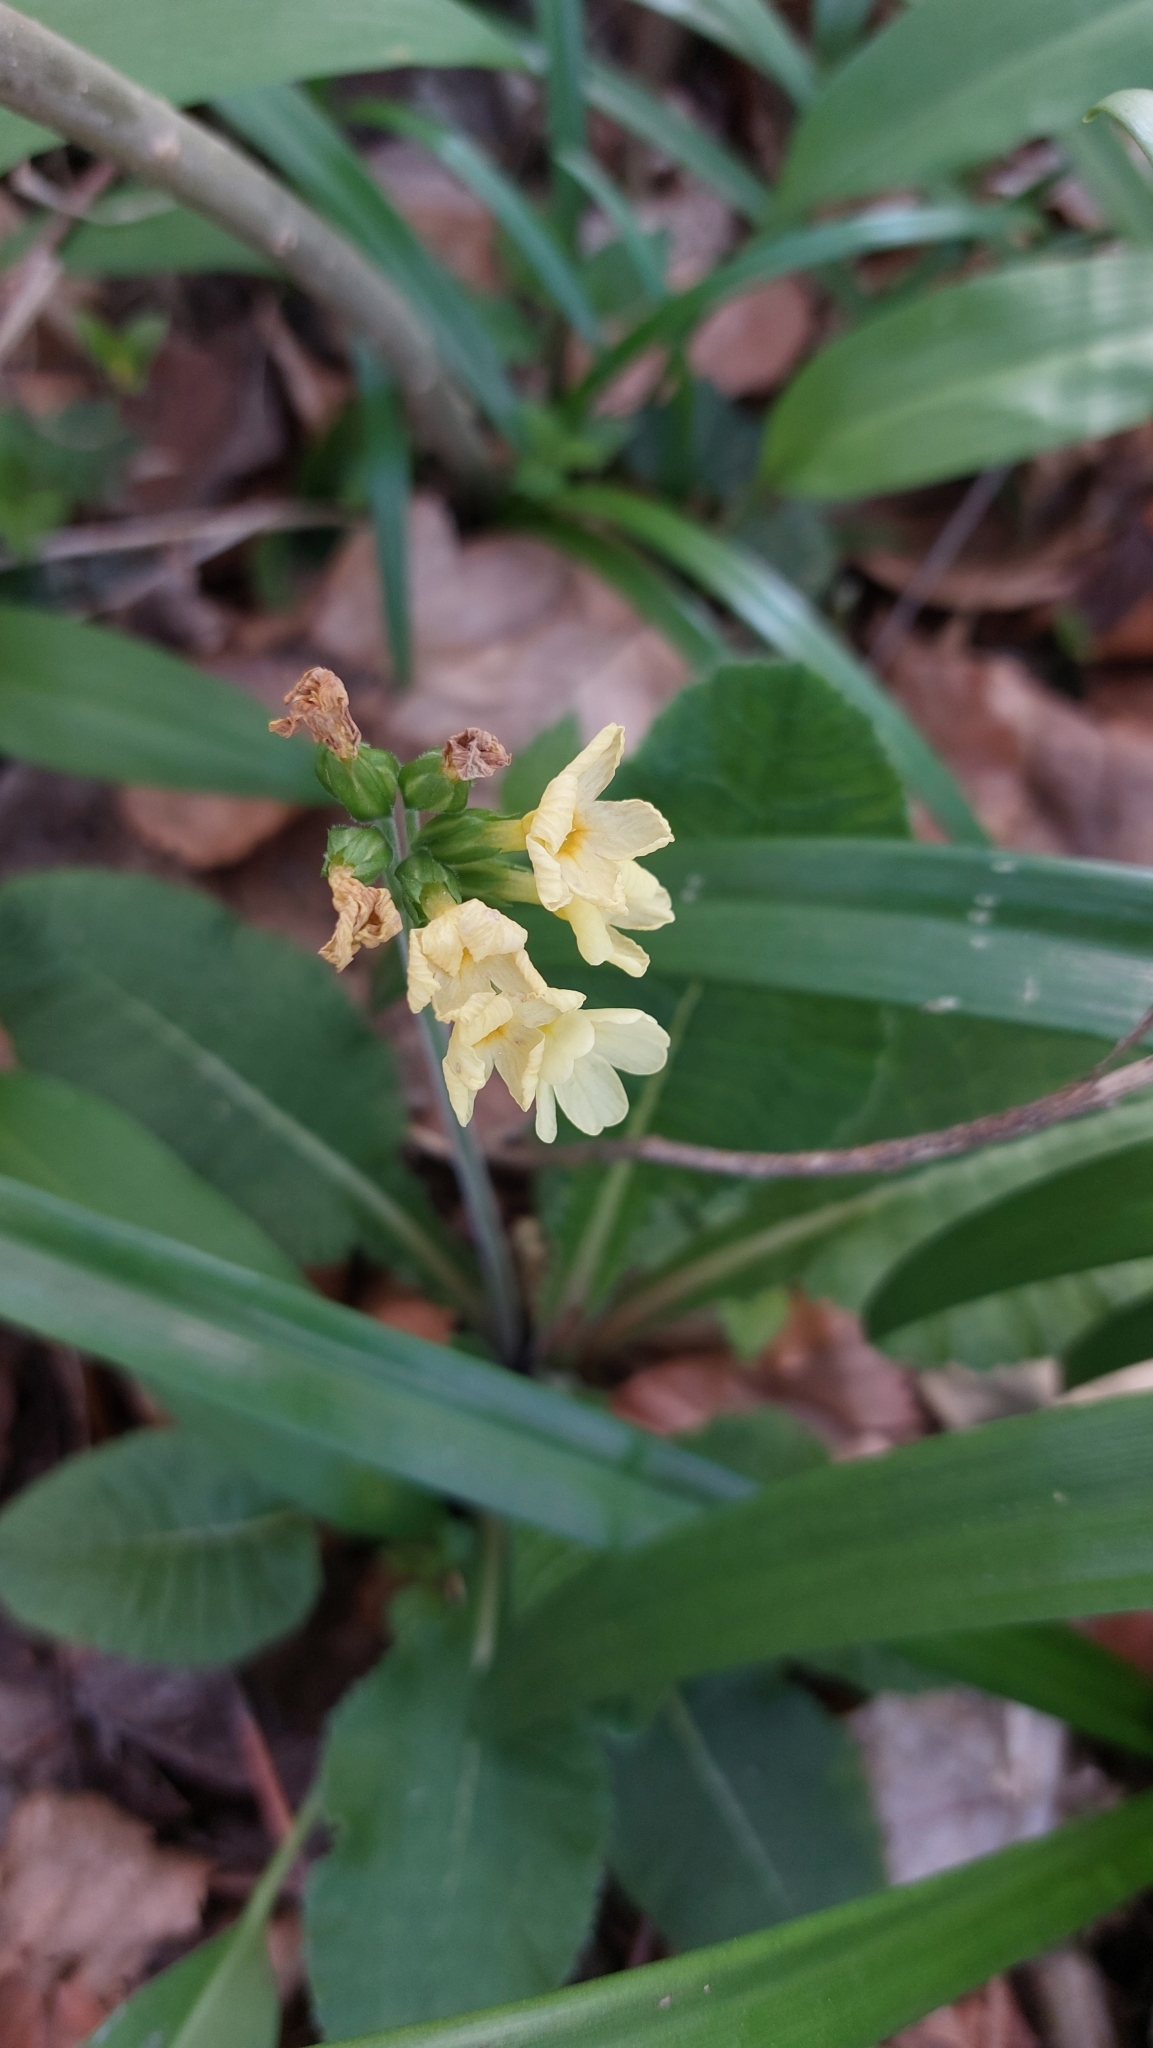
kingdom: Plantae
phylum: Tracheophyta
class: Magnoliopsida
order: Ericales
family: Primulaceae
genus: Primula
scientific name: Primula elatior
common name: Oxlip
